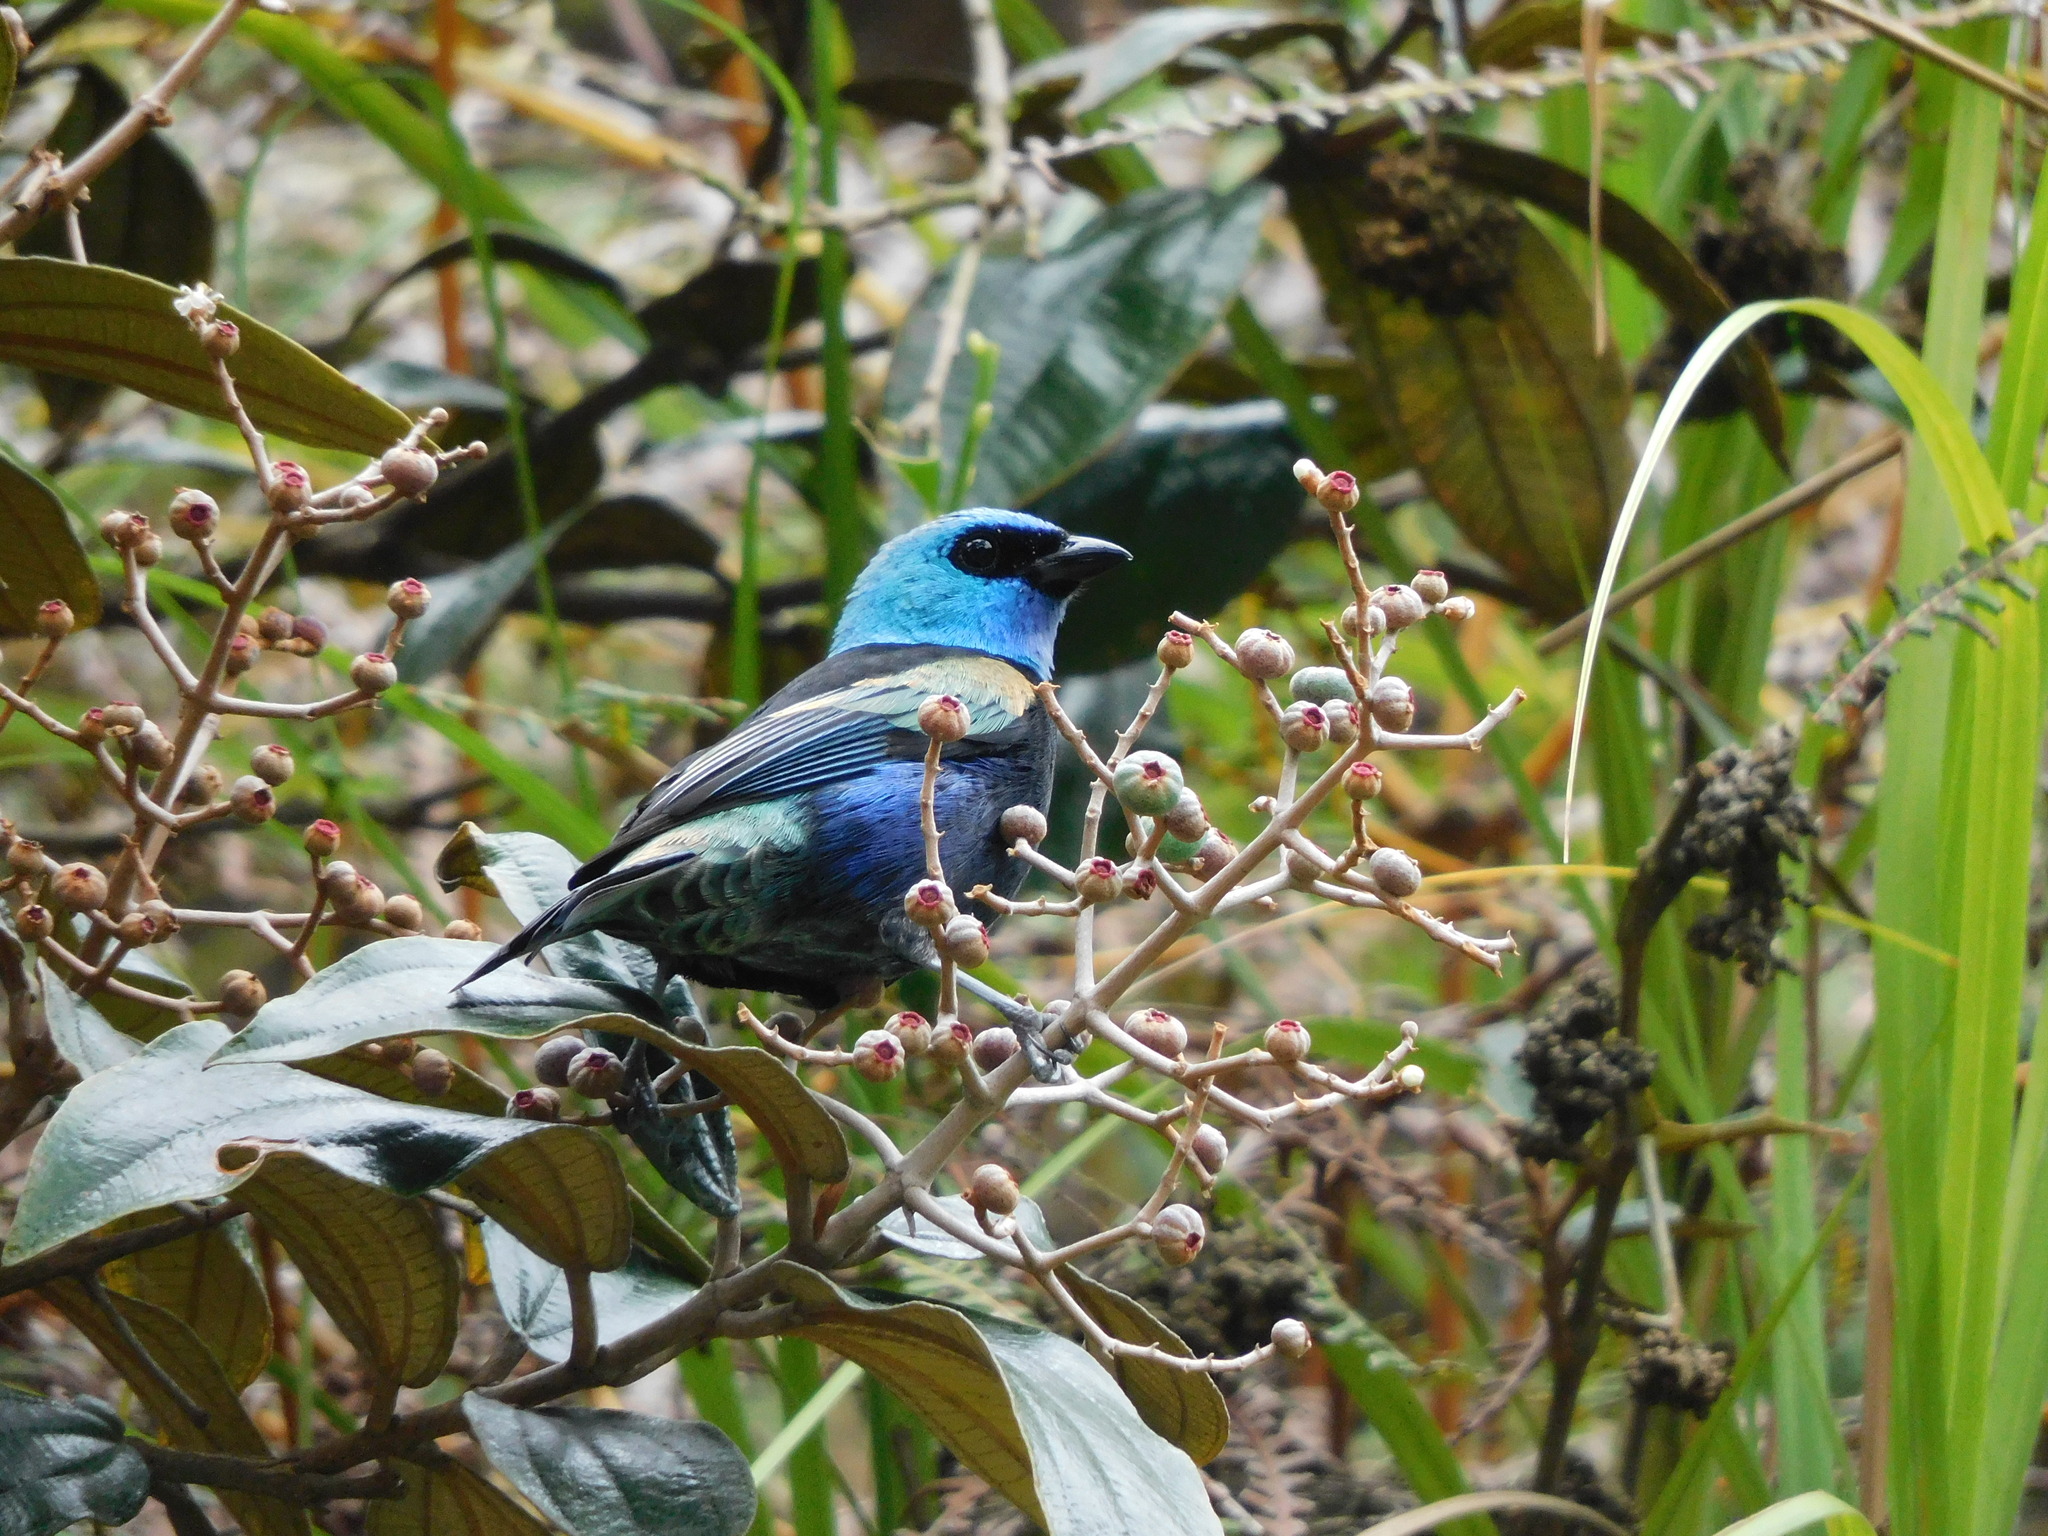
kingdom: Animalia
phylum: Chordata
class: Aves
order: Passeriformes
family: Thraupidae
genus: Stilpnia
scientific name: Stilpnia cyanicollis
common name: Blue-necked tanager
